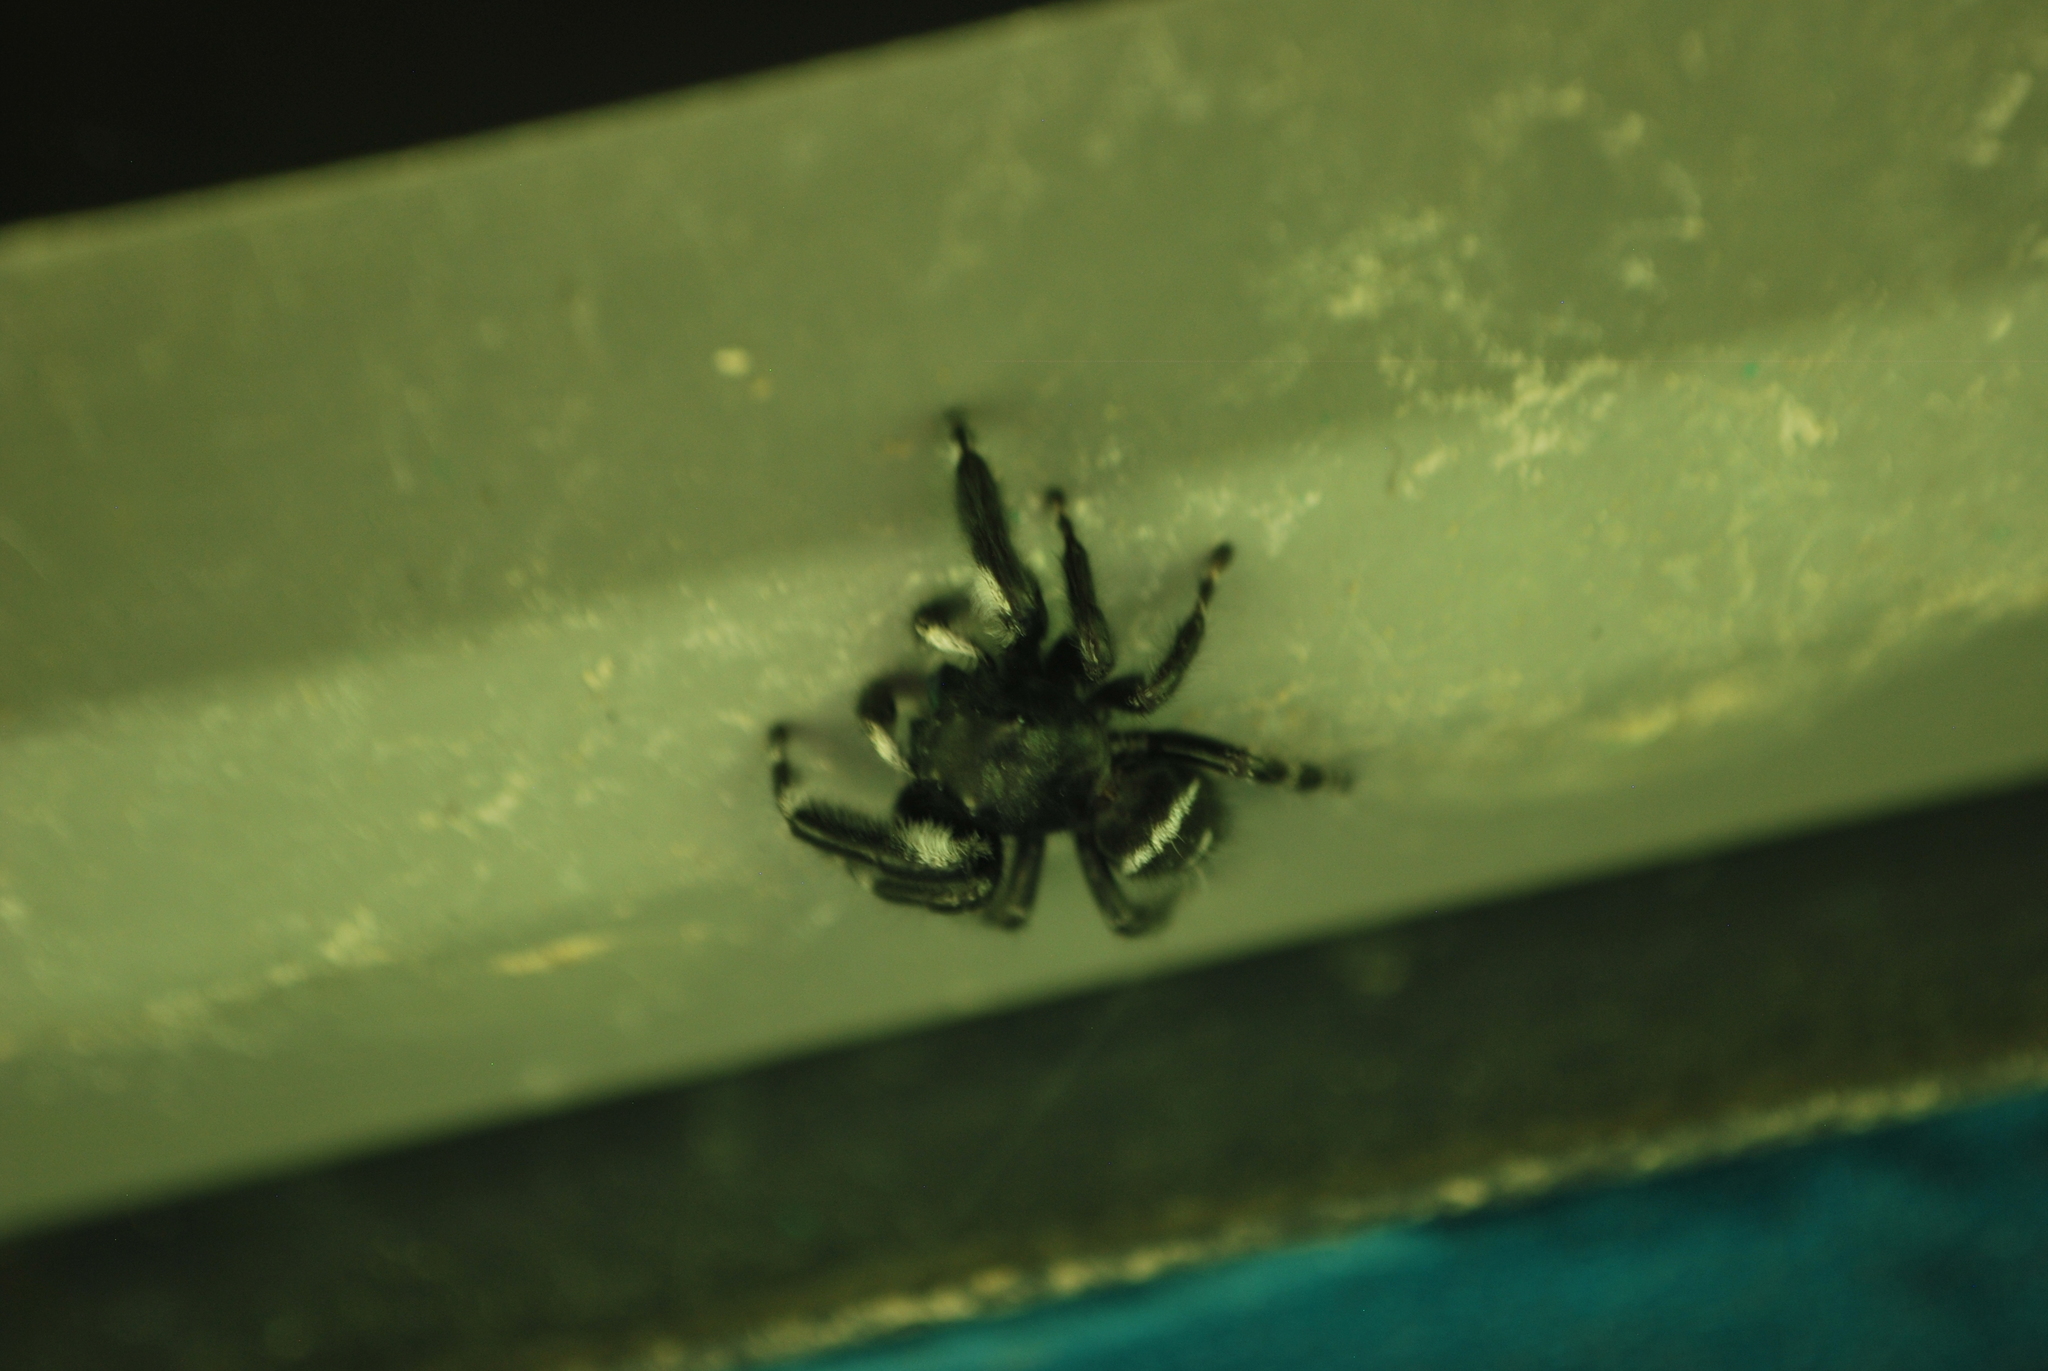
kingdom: Animalia
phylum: Arthropoda
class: Arachnida
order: Araneae
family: Salticidae
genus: Phidippus
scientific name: Phidippus audax
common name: Bold jumper
